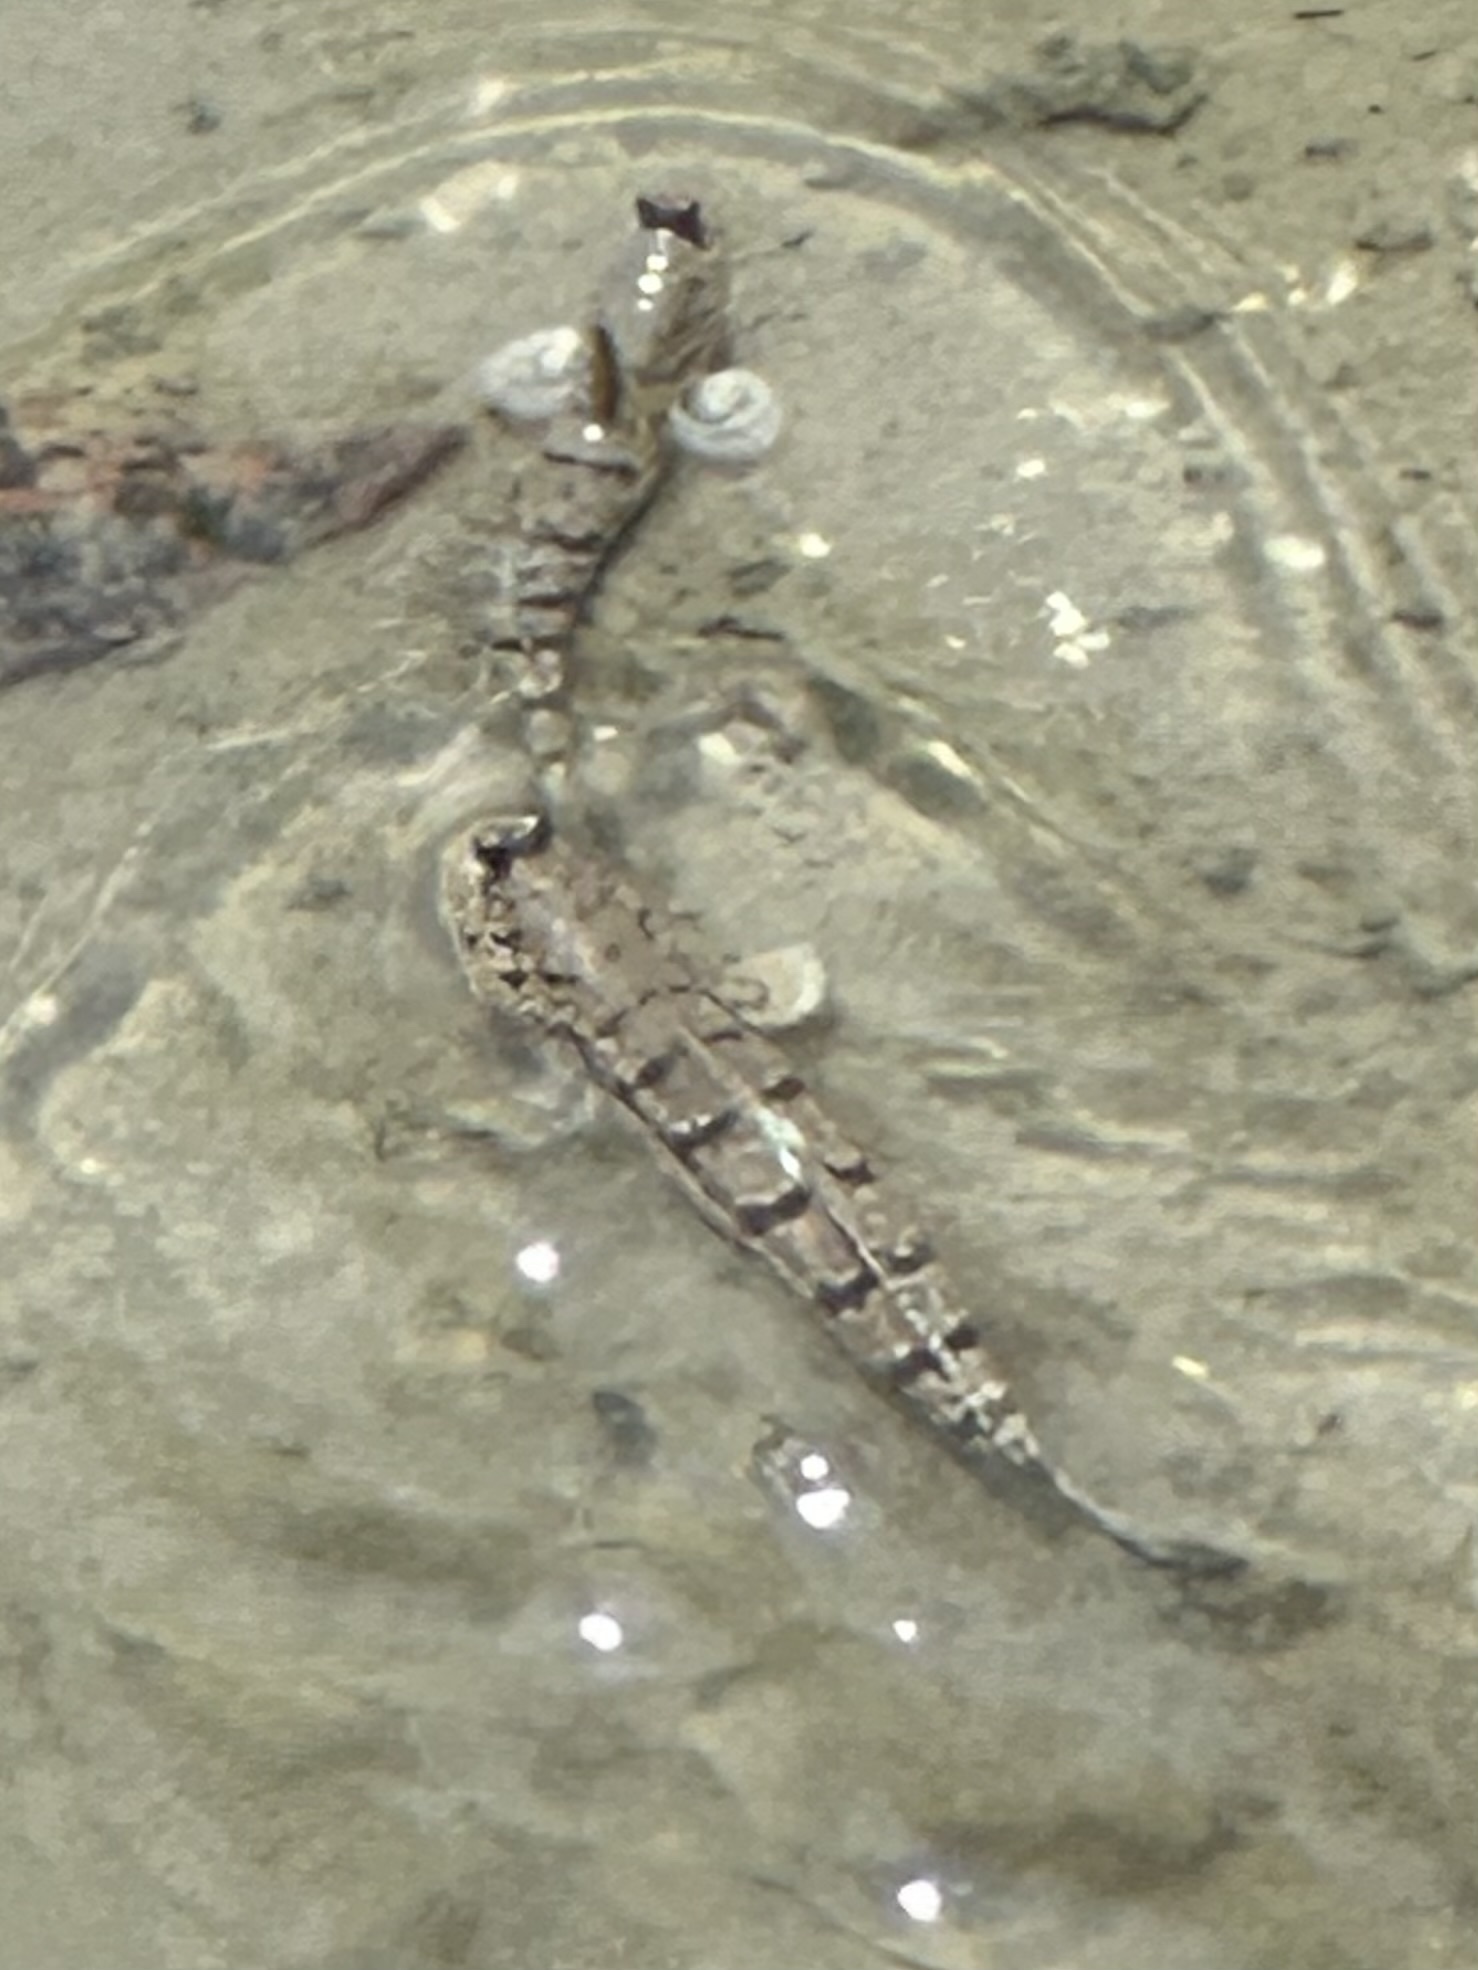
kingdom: Animalia
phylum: Chordata
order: Perciformes
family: Gobiidae
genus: Boleophthalmus
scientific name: Boleophthalmus boddarti
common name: Boddart's goggle-eyed goby
